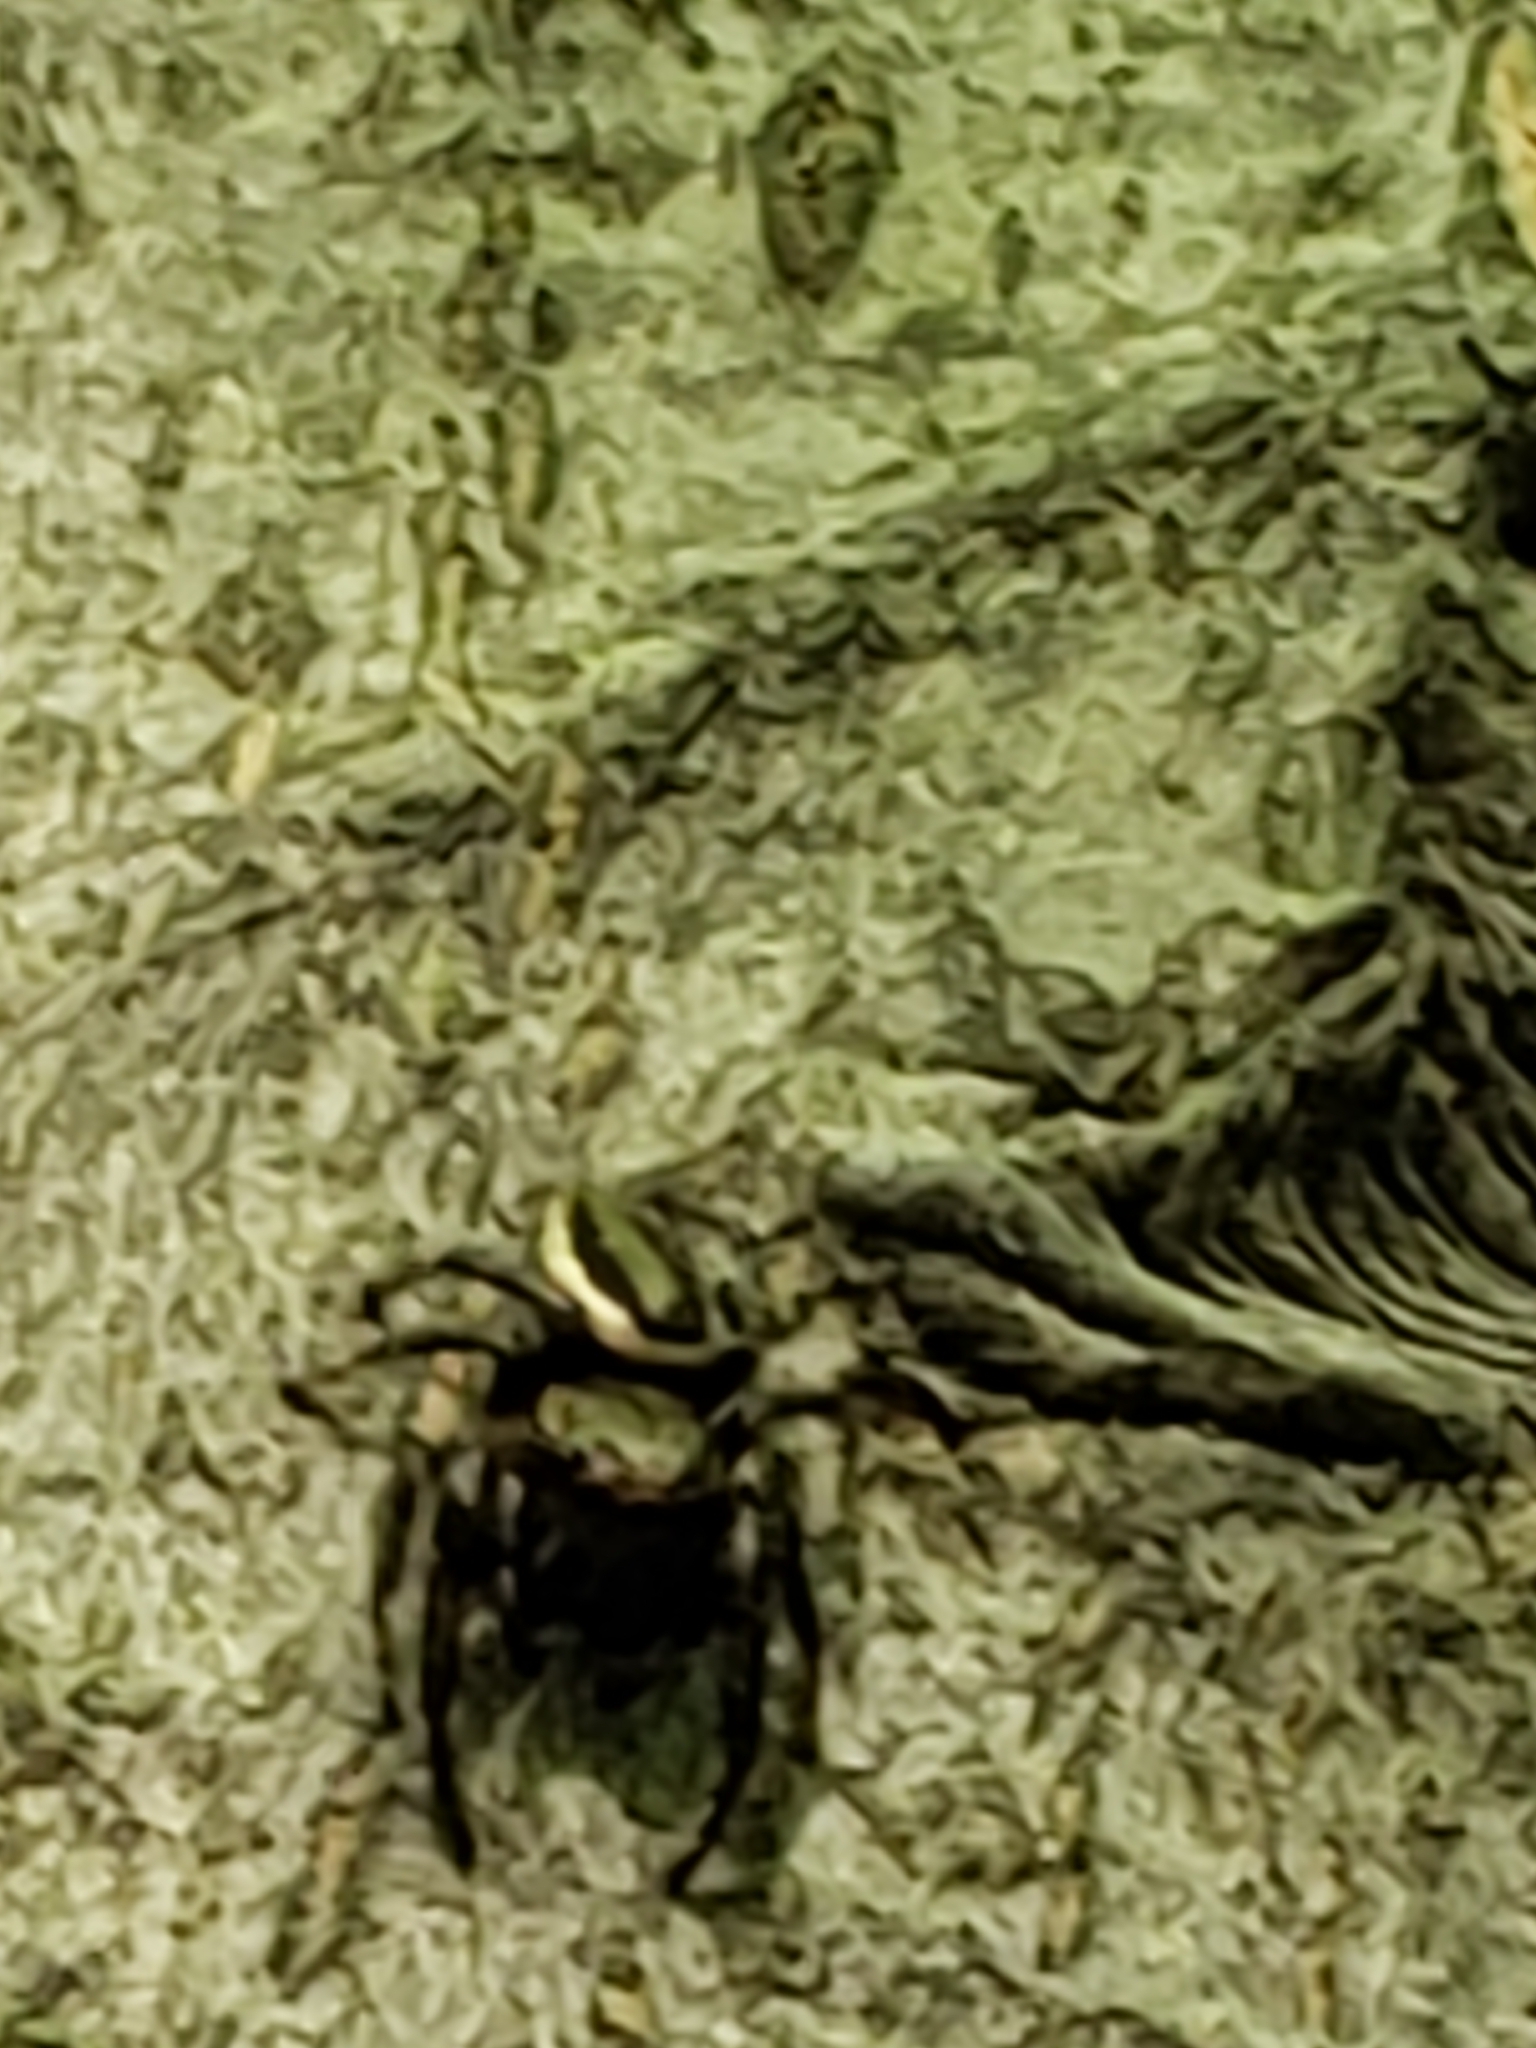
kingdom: Animalia
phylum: Arthropoda
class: Arachnida
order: Araneae
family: Salticidae
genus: Eris
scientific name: Eris militaris
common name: Bronze jumper
